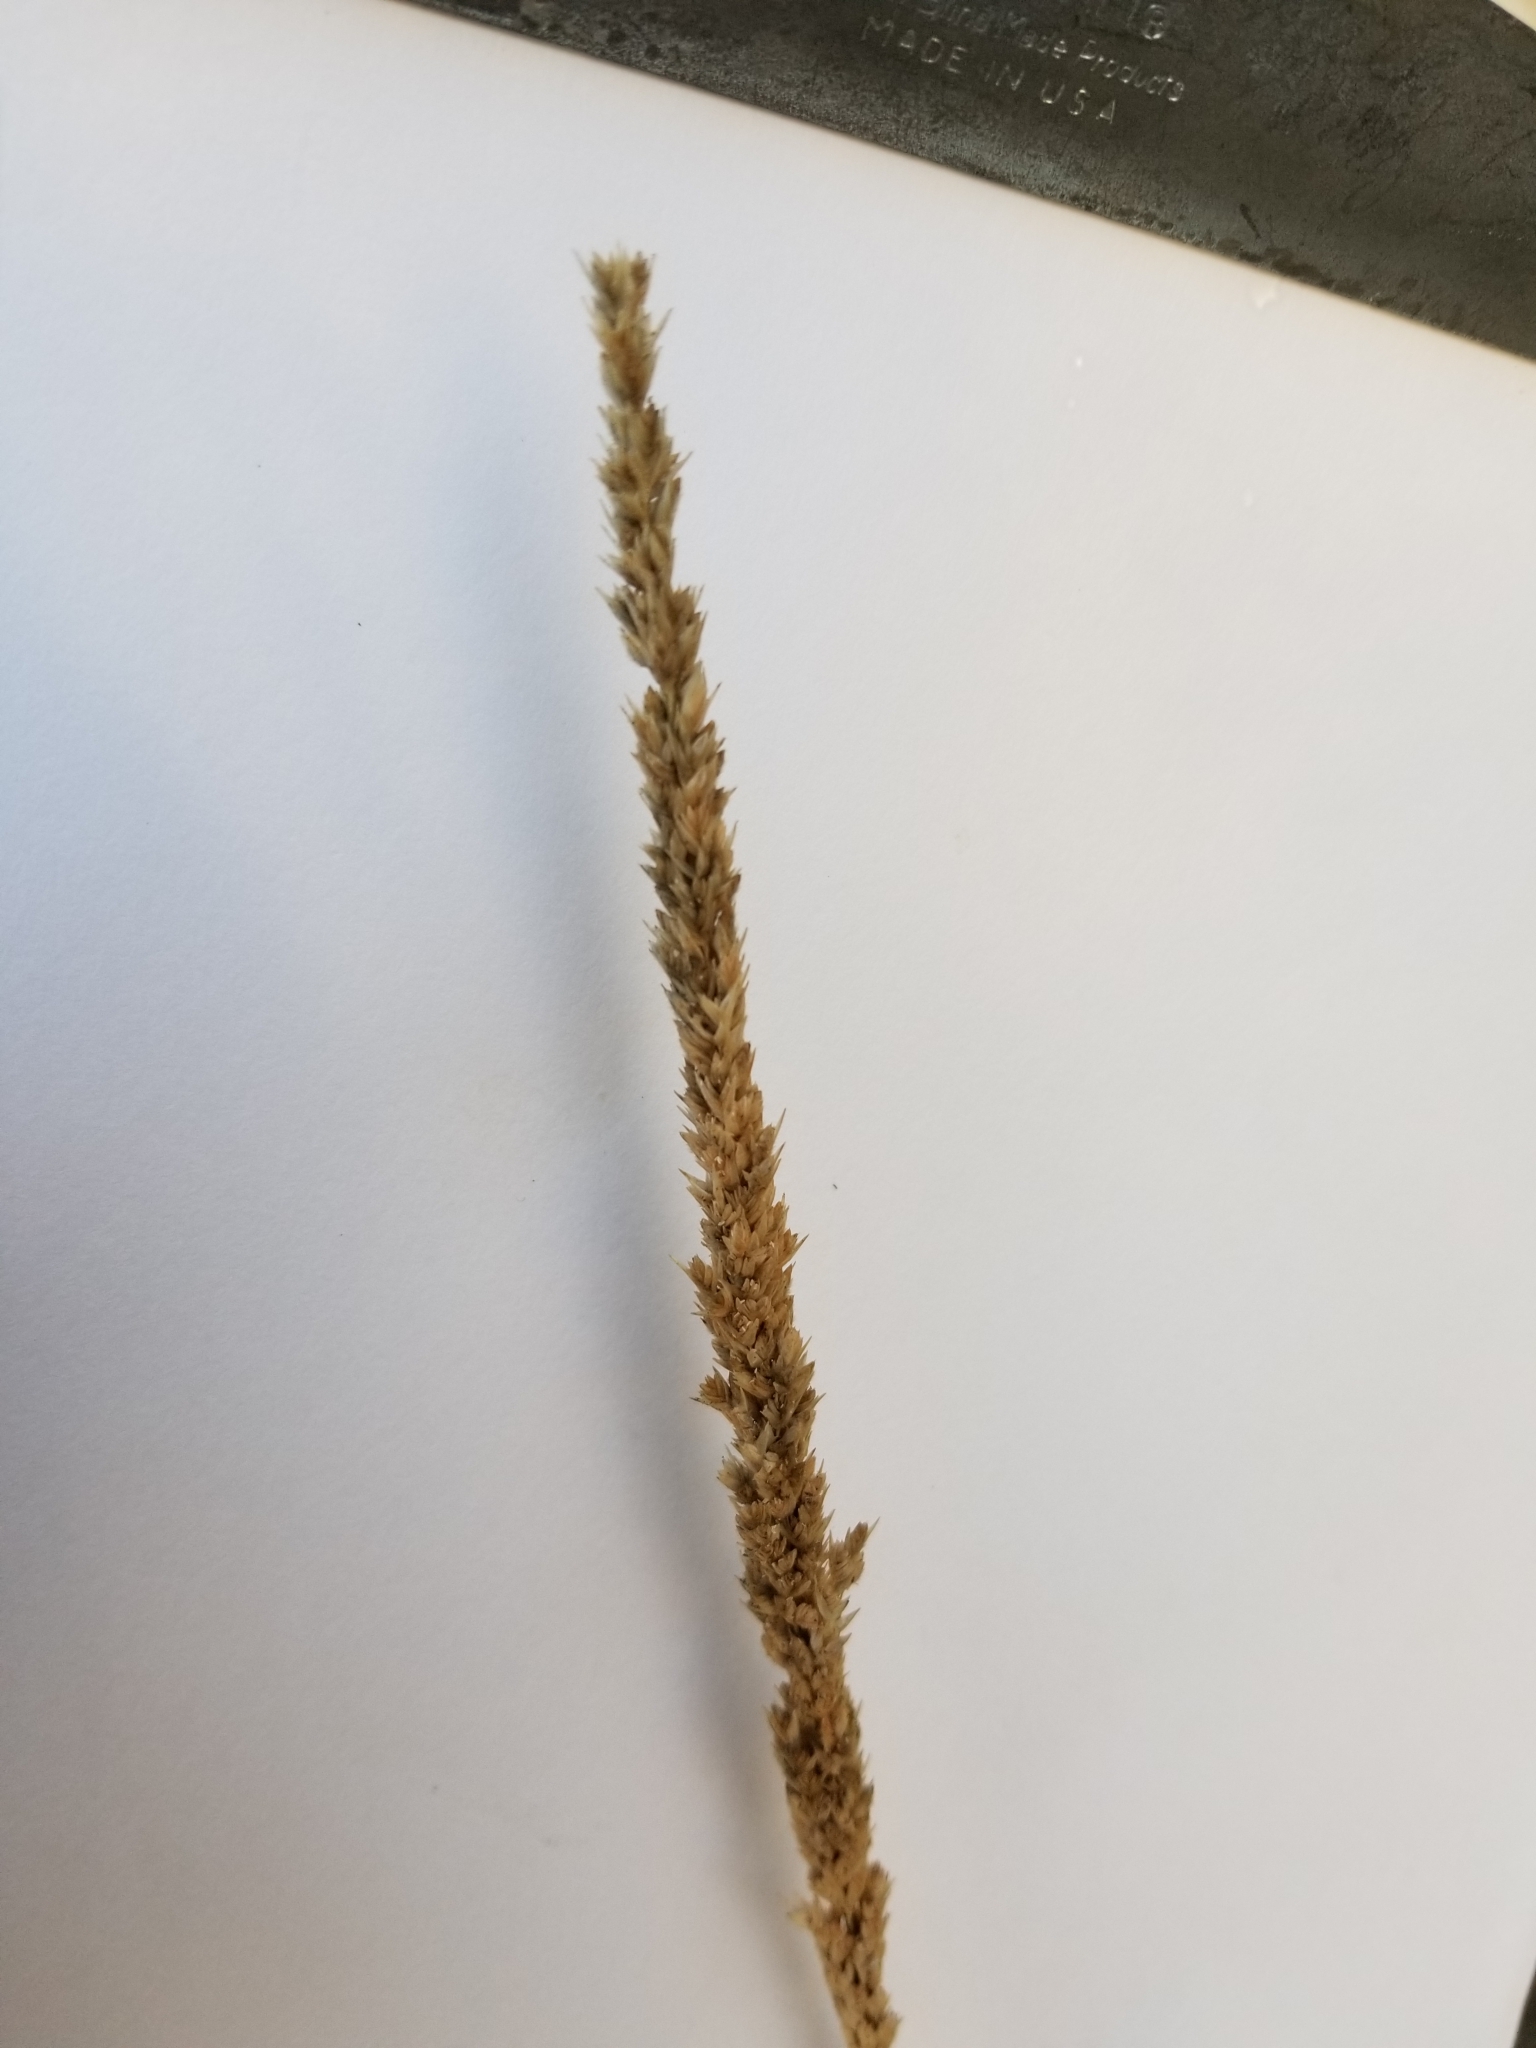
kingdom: Plantae
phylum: Tracheophyta
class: Liliopsida
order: Poales
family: Poaceae
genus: Tridens
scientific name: Tridens strictus
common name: Long-spike tridens
